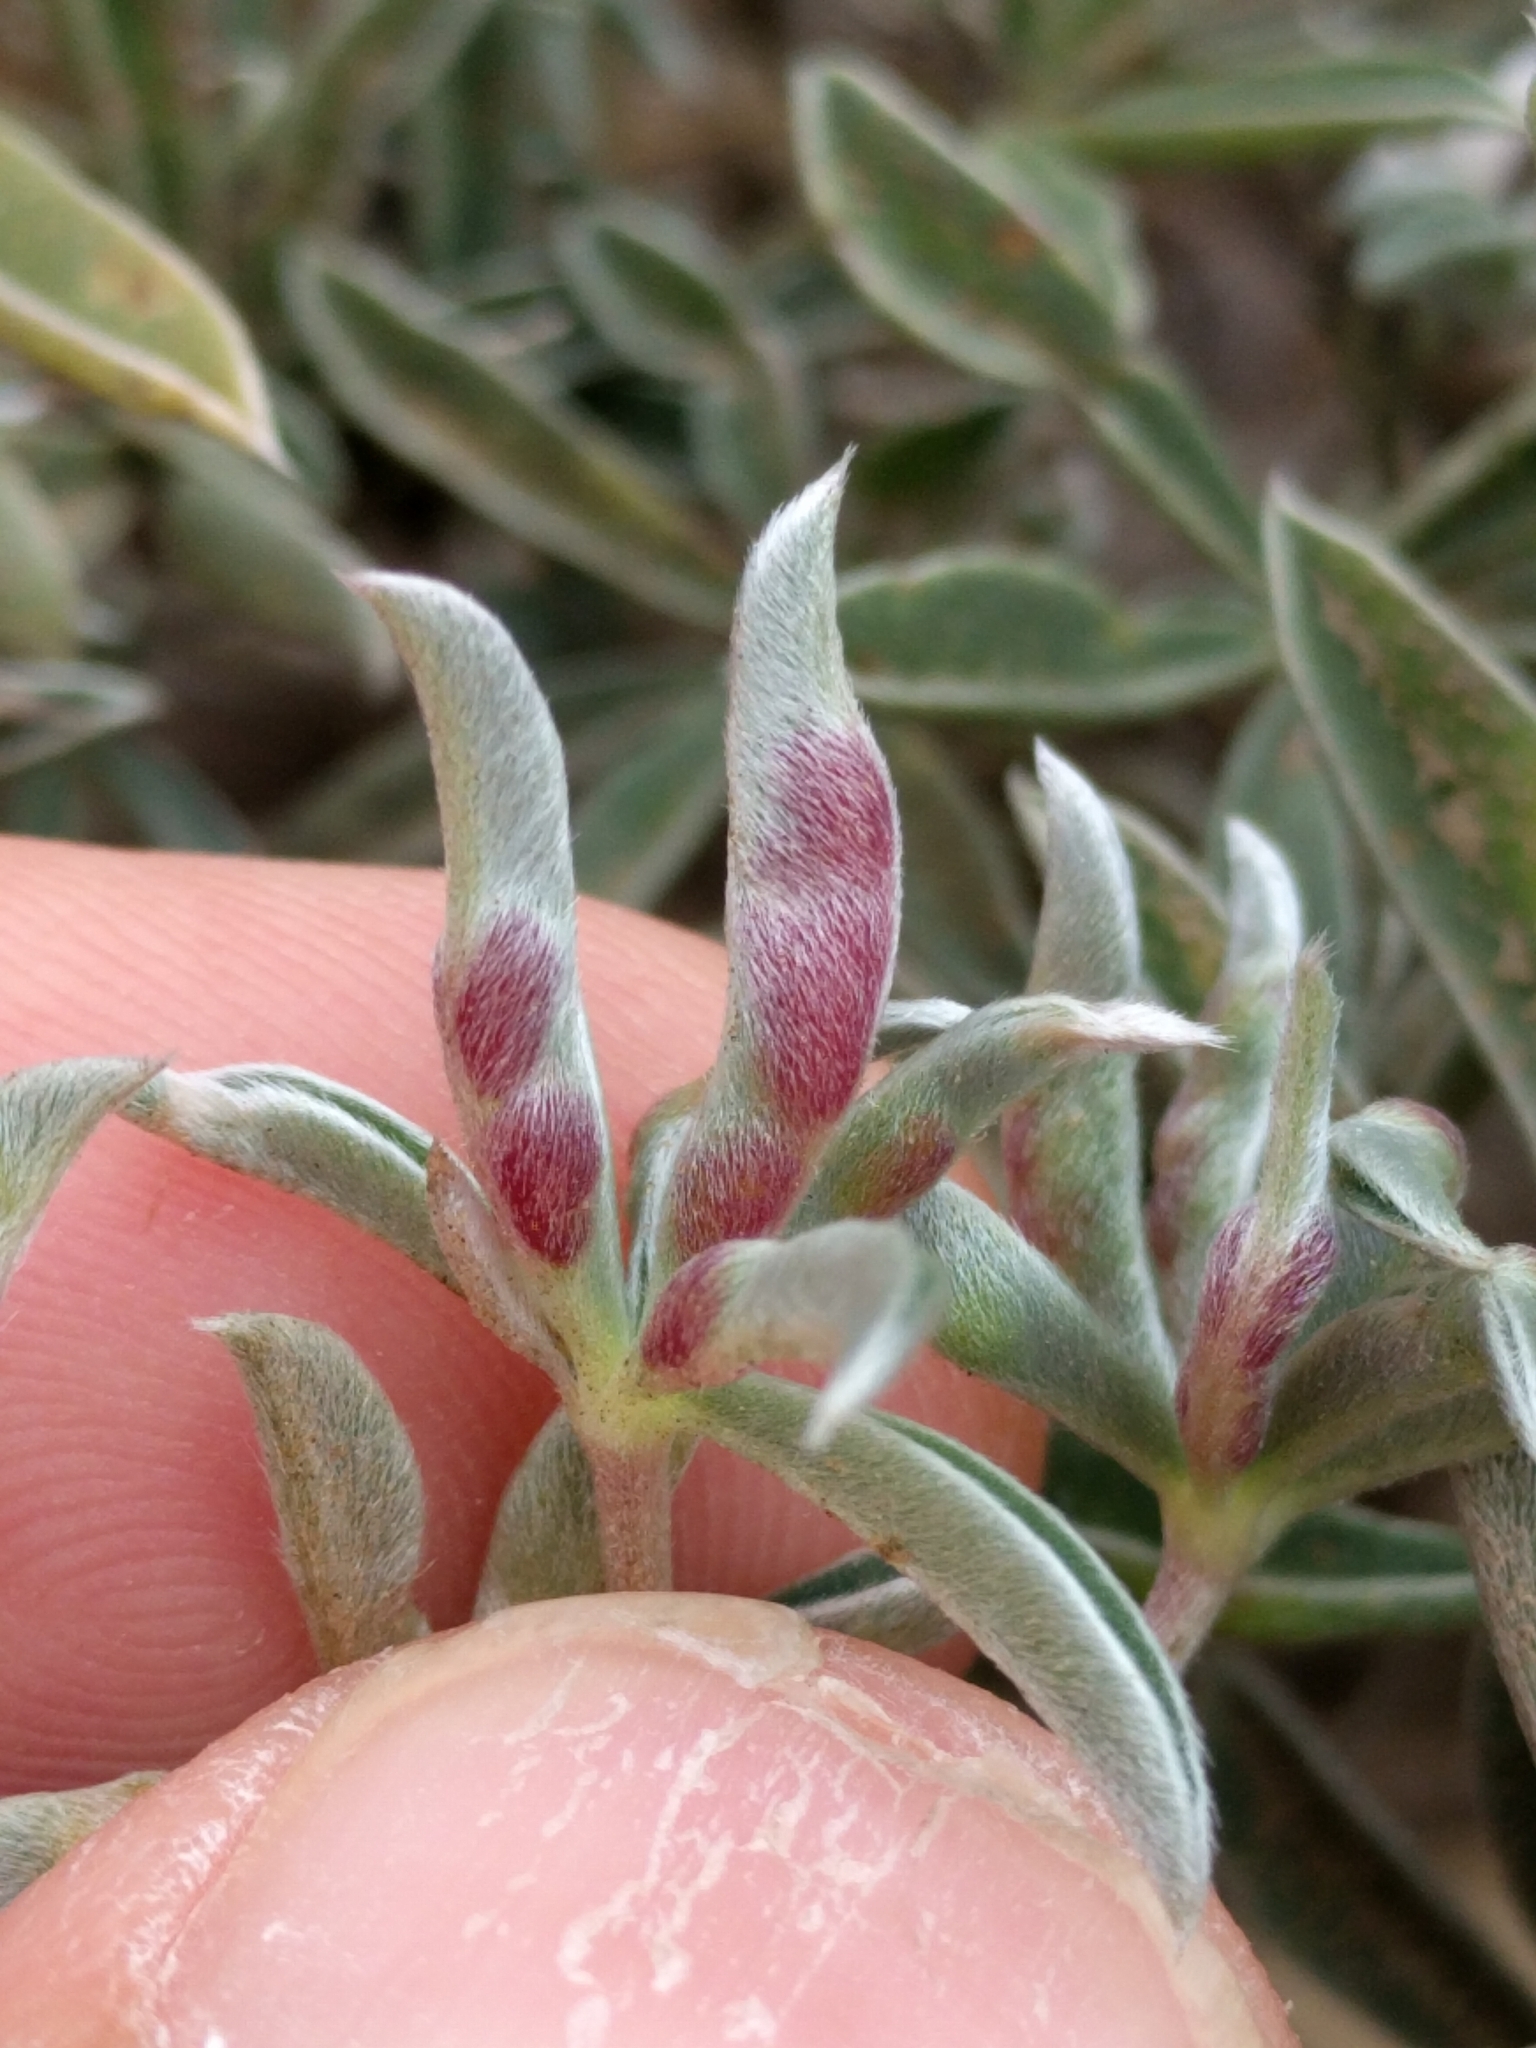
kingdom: Animalia
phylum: Arthropoda
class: Insecta
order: Diptera
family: Cecidomyiidae
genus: Dasineura
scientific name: Dasineura lupinorum
